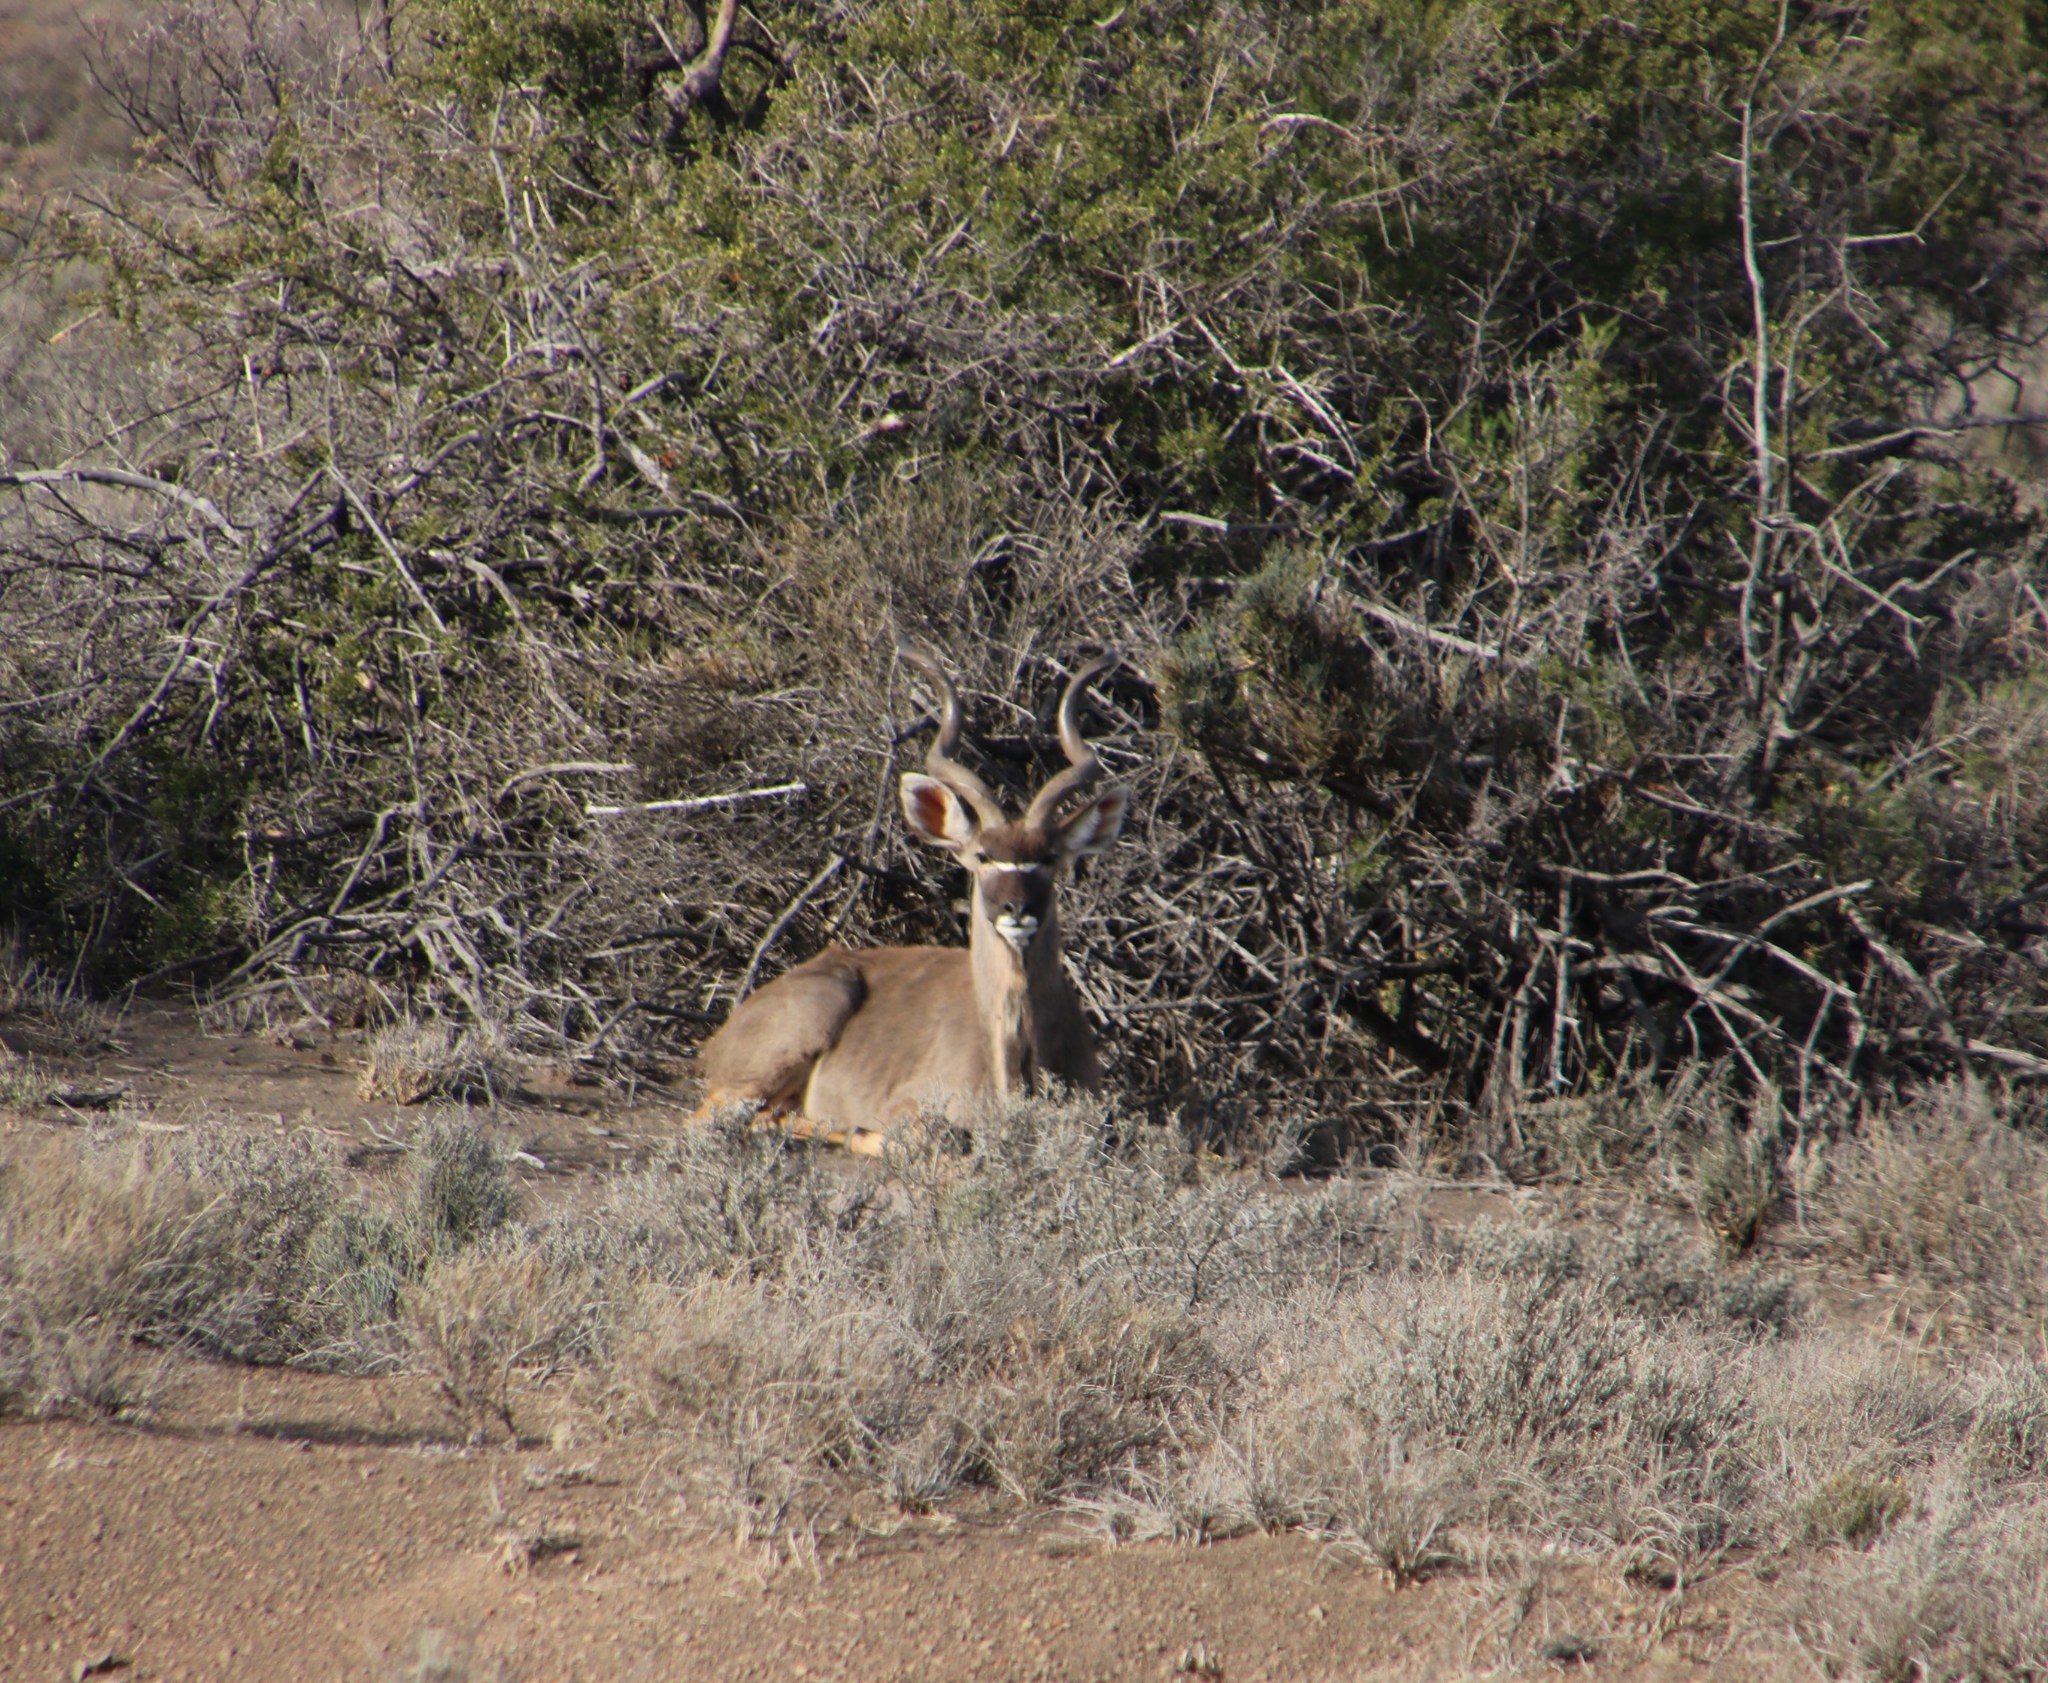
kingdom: Animalia
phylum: Chordata
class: Mammalia
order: Artiodactyla
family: Bovidae
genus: Tragelaphus
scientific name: Tragelaphus strepsiceros
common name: Greater kudu
